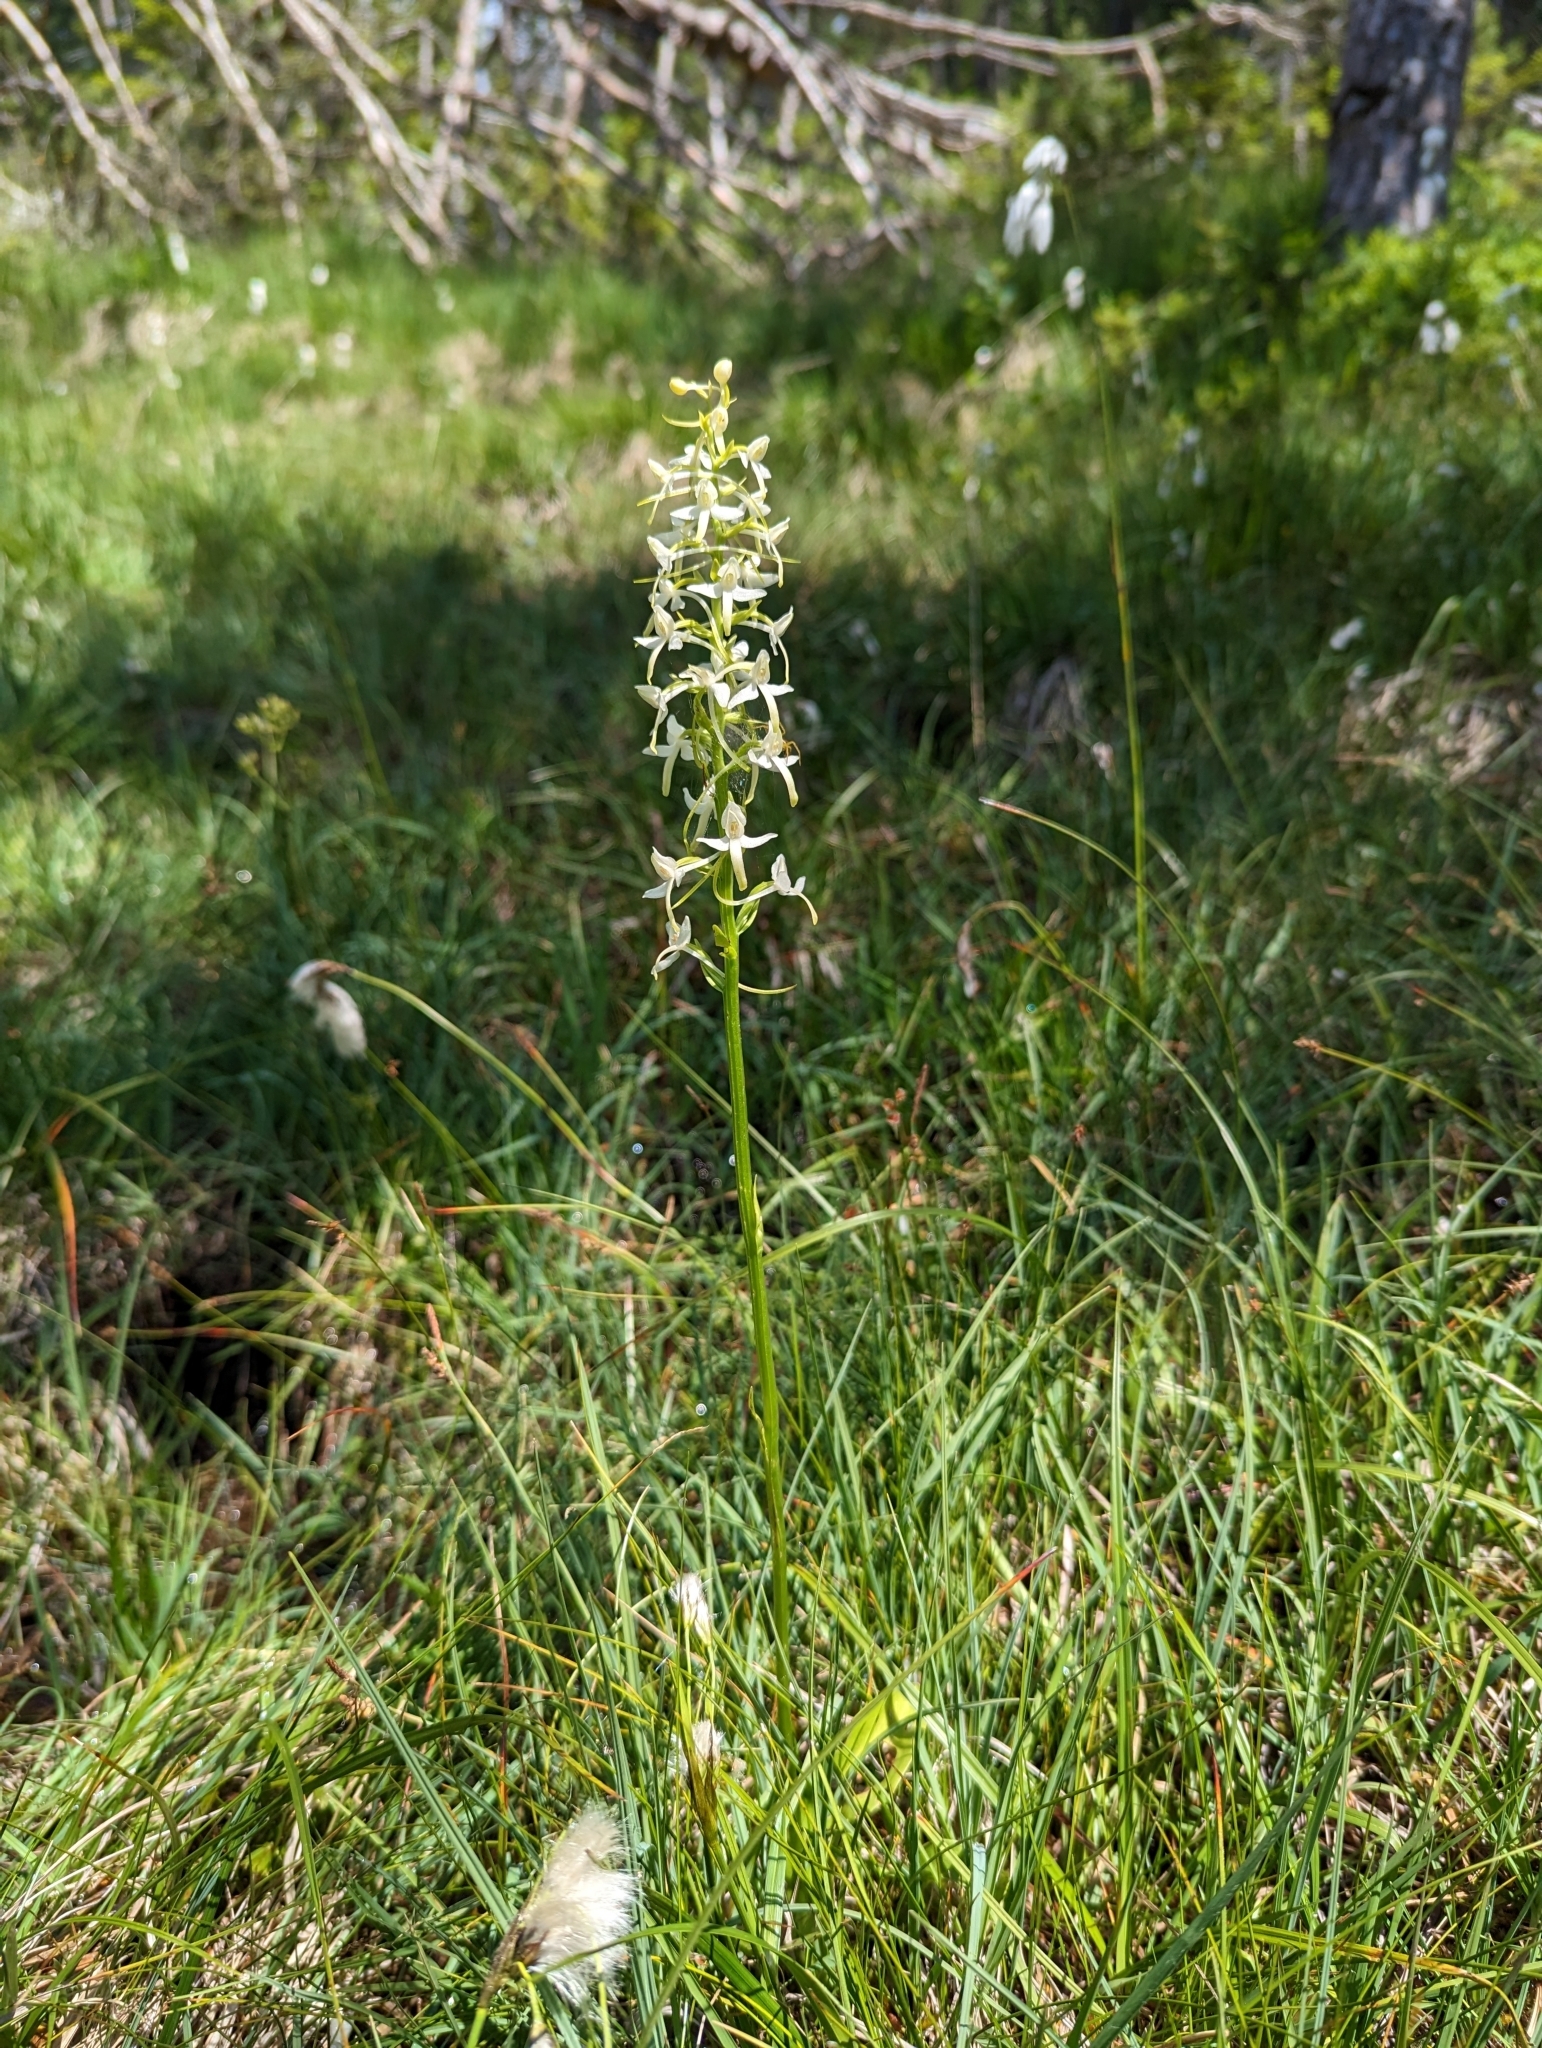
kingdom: Plantae
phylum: Tracheophyta
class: Liliopsida
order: Asparagales
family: Orchidaceae
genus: Platanthera
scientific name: Platanthera bifolia
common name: Lesser butterfly-orchid
